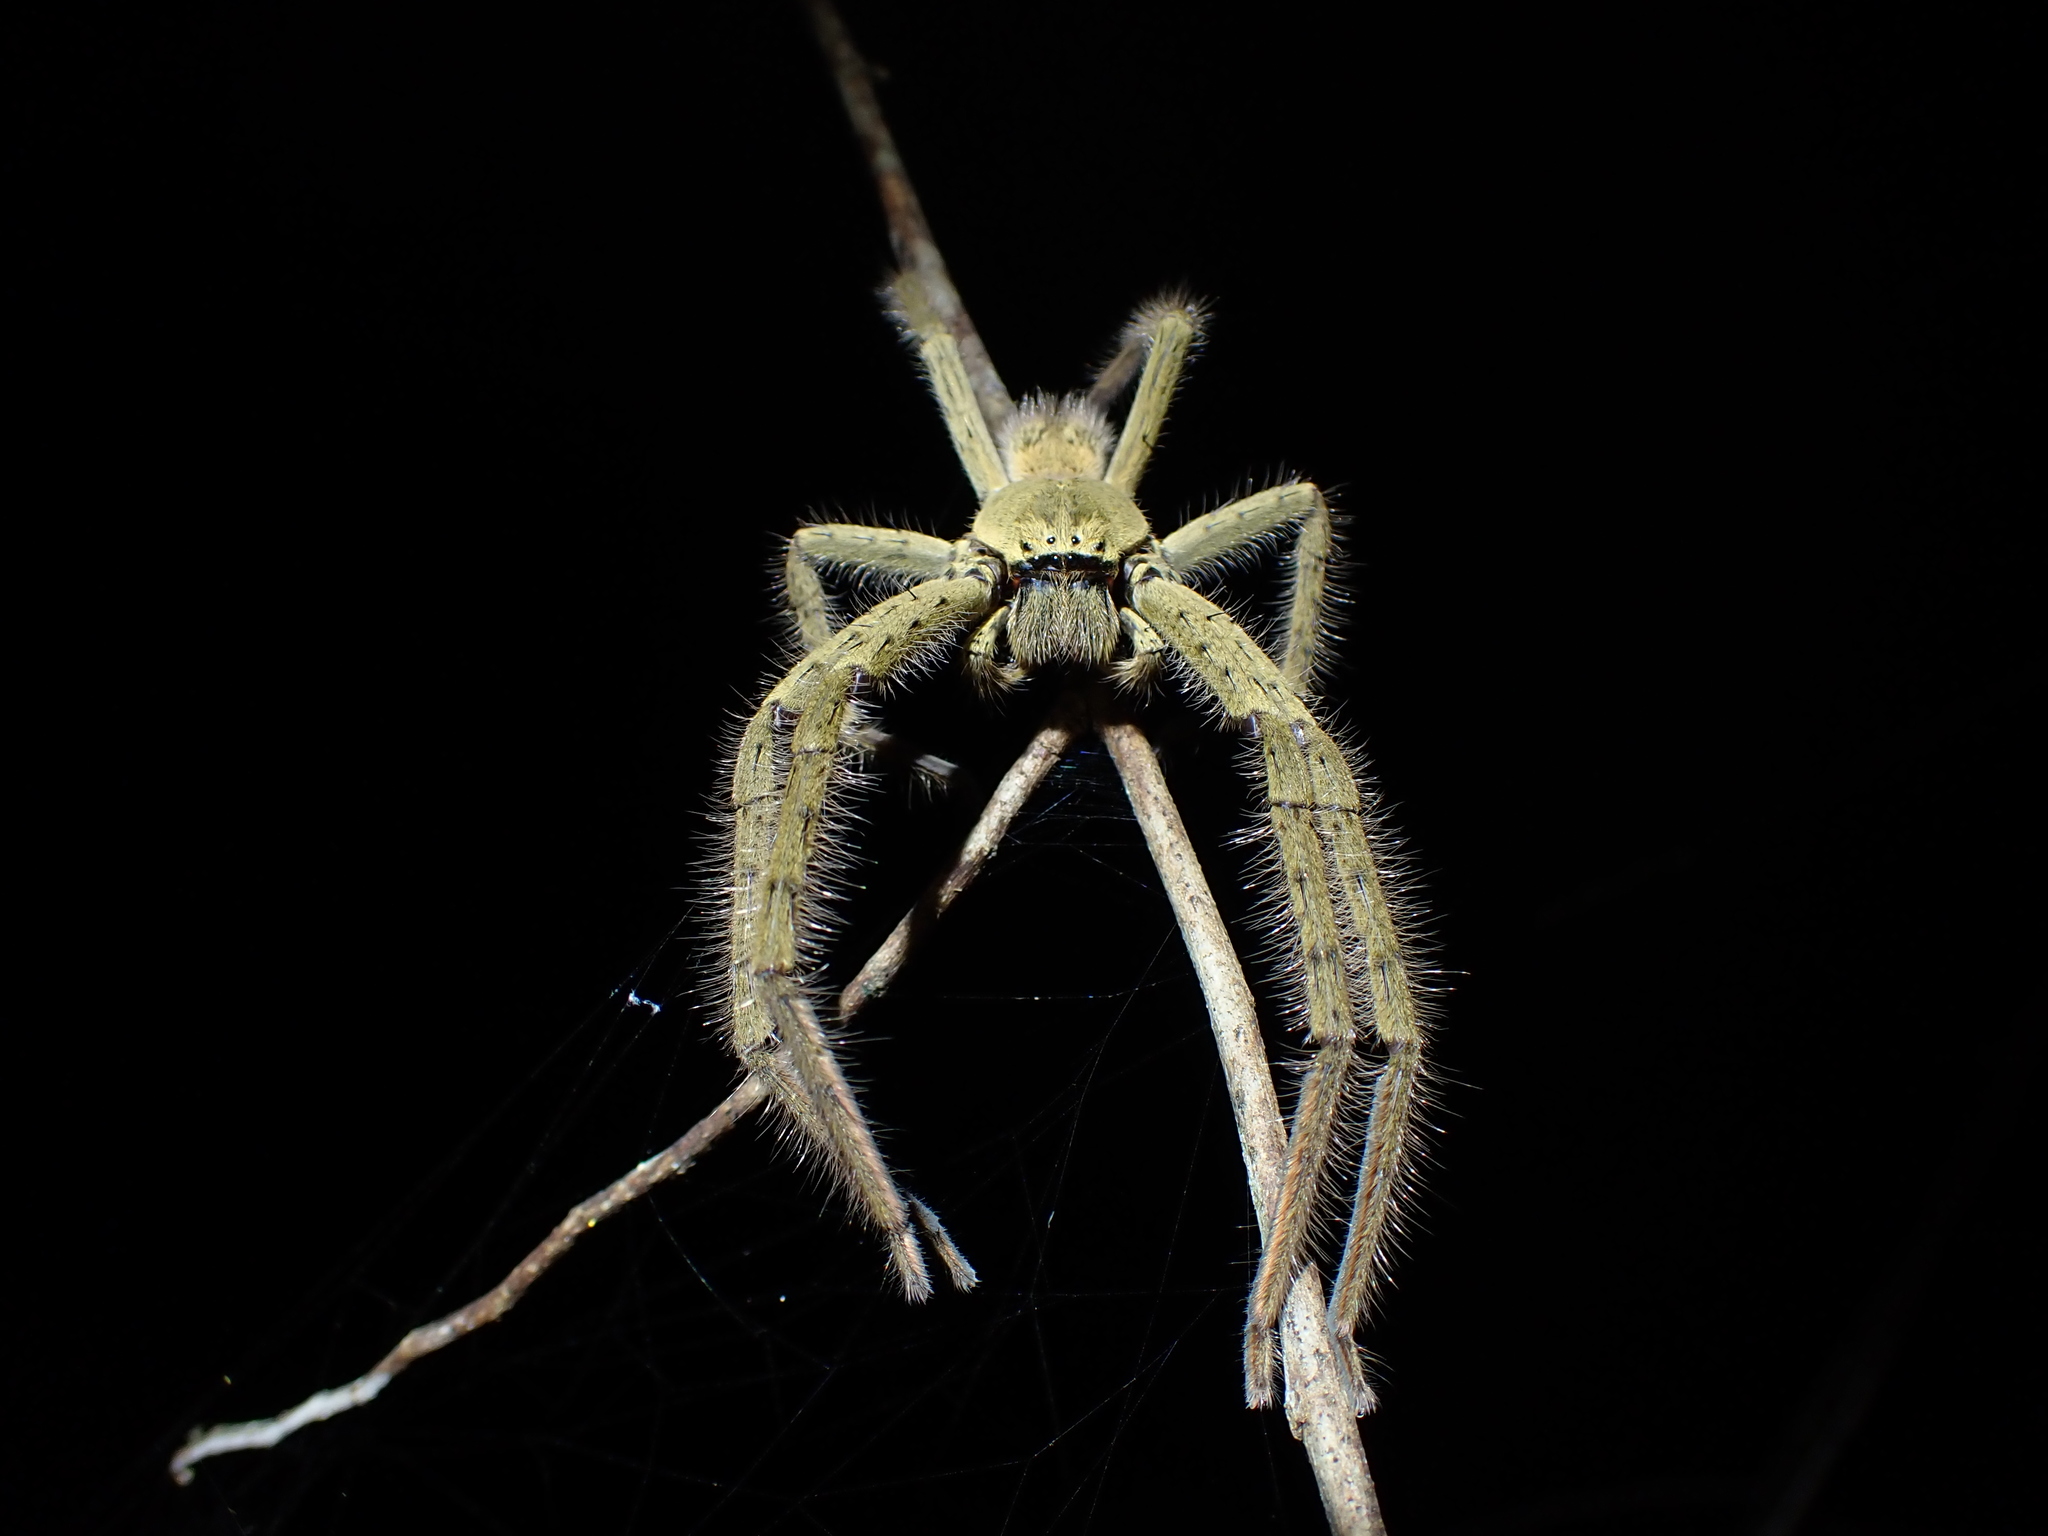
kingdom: Animalia
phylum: Arthropoda
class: Arachnida
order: Araneae
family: Sparassidae
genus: Beregama
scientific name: Beregama cordata
